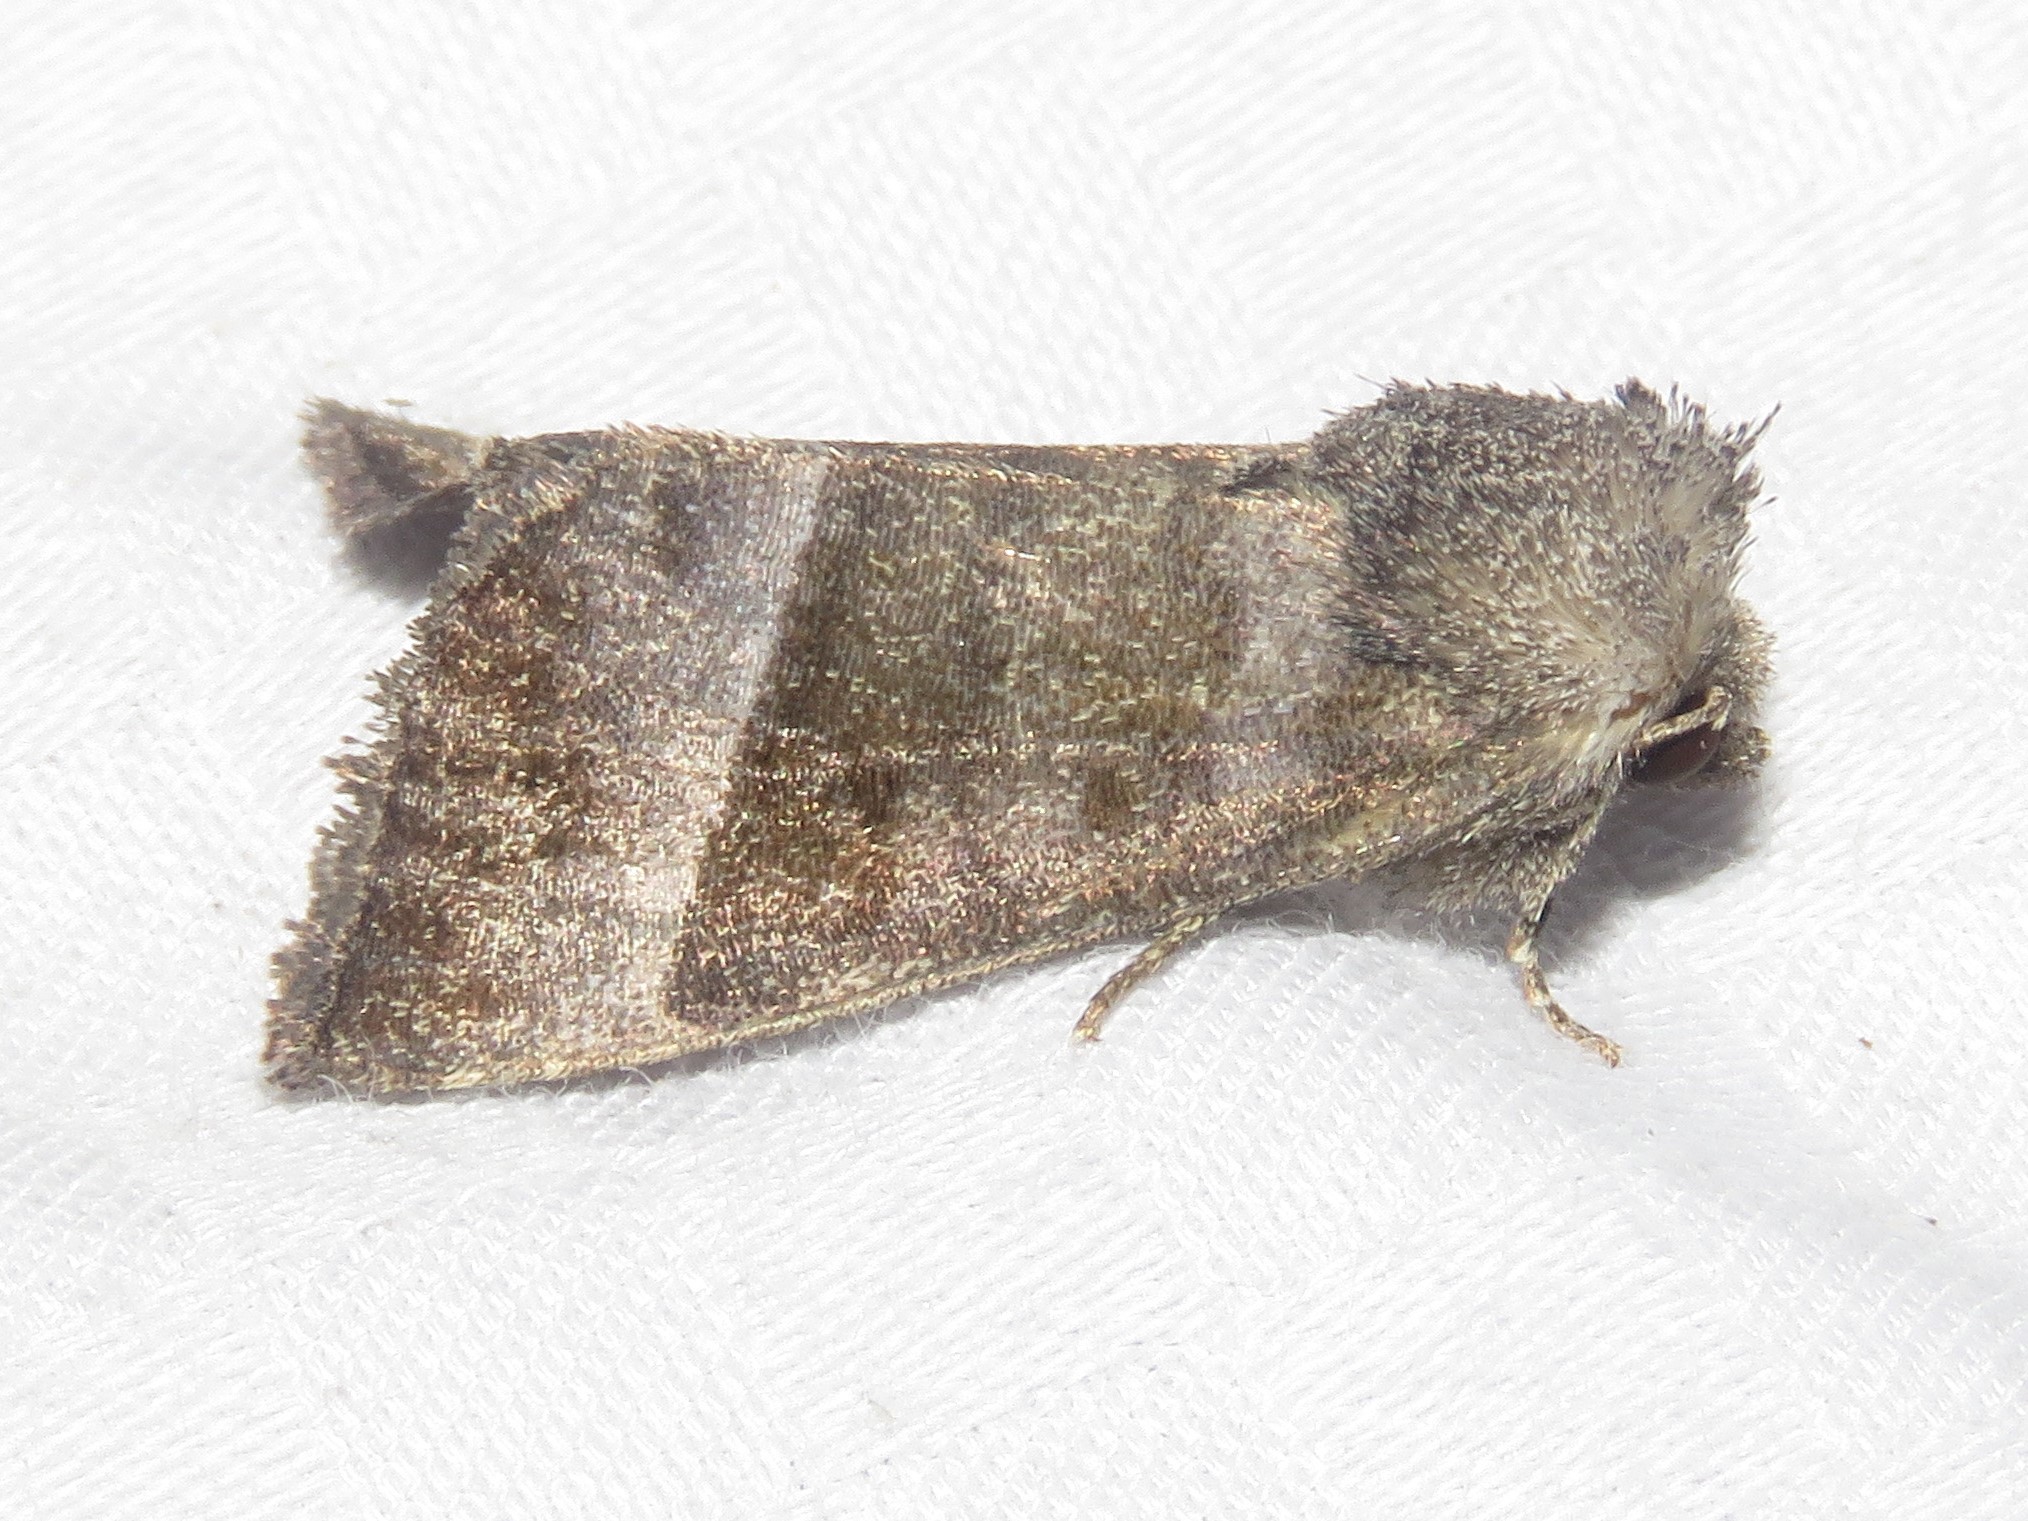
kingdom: Animalia
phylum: Arthropoda
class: Insecta
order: Lepidoptera
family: Noctuidae
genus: Papaipema
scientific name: Papaipema eupatorii
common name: Eupatorium borer moth
